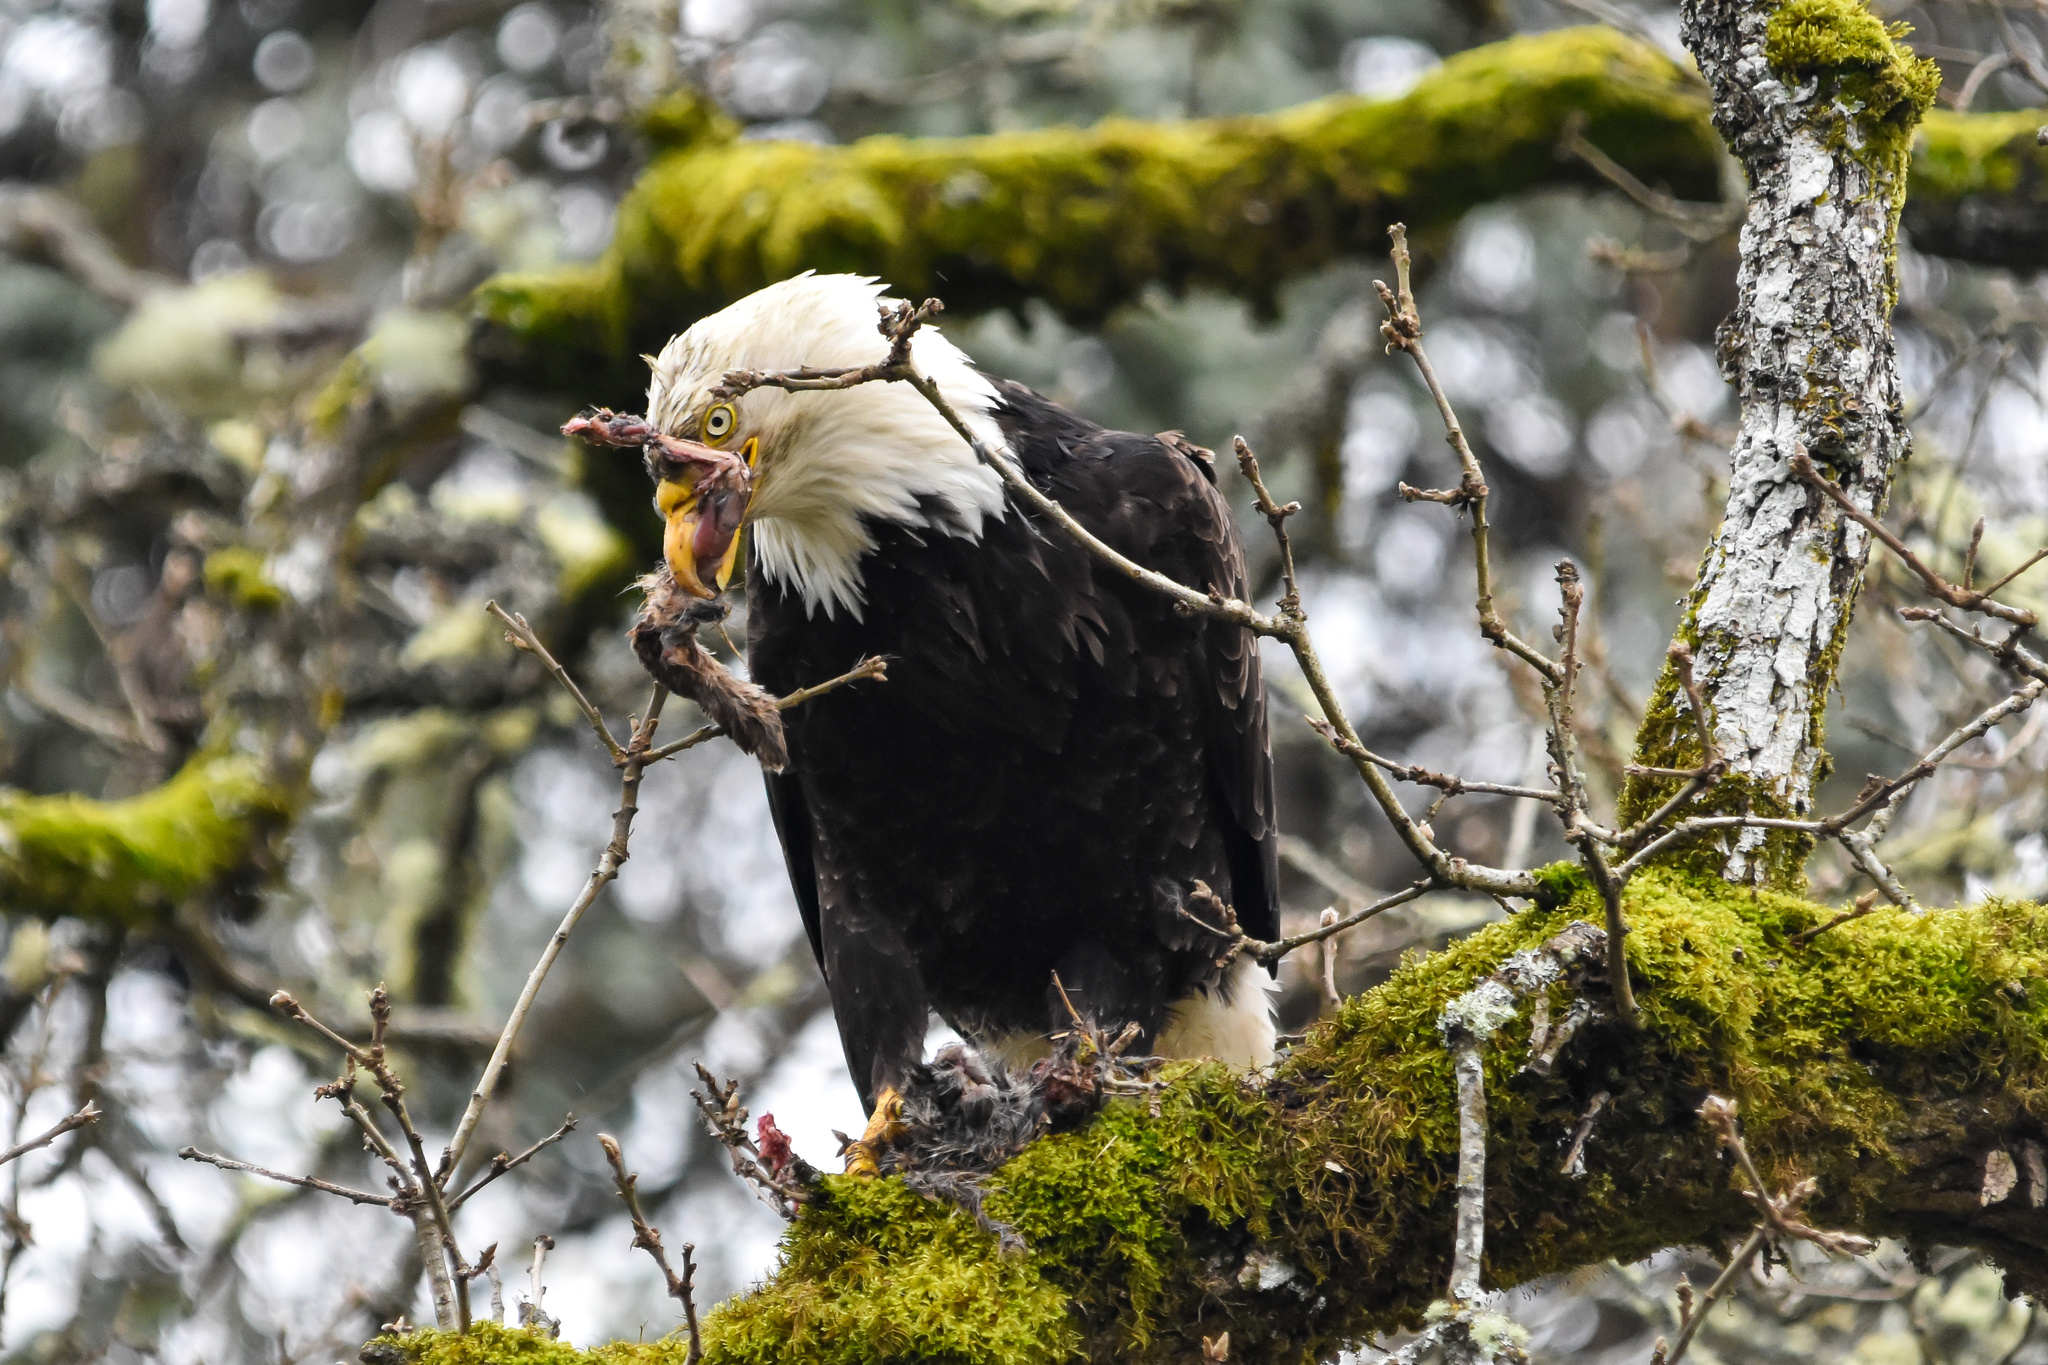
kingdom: Animalia
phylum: Chordata
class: Aves
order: Accipitriformes
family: Accipitridae
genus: Haliaeetus
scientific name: Haliaeetus leucocephalus
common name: Bald eagle
